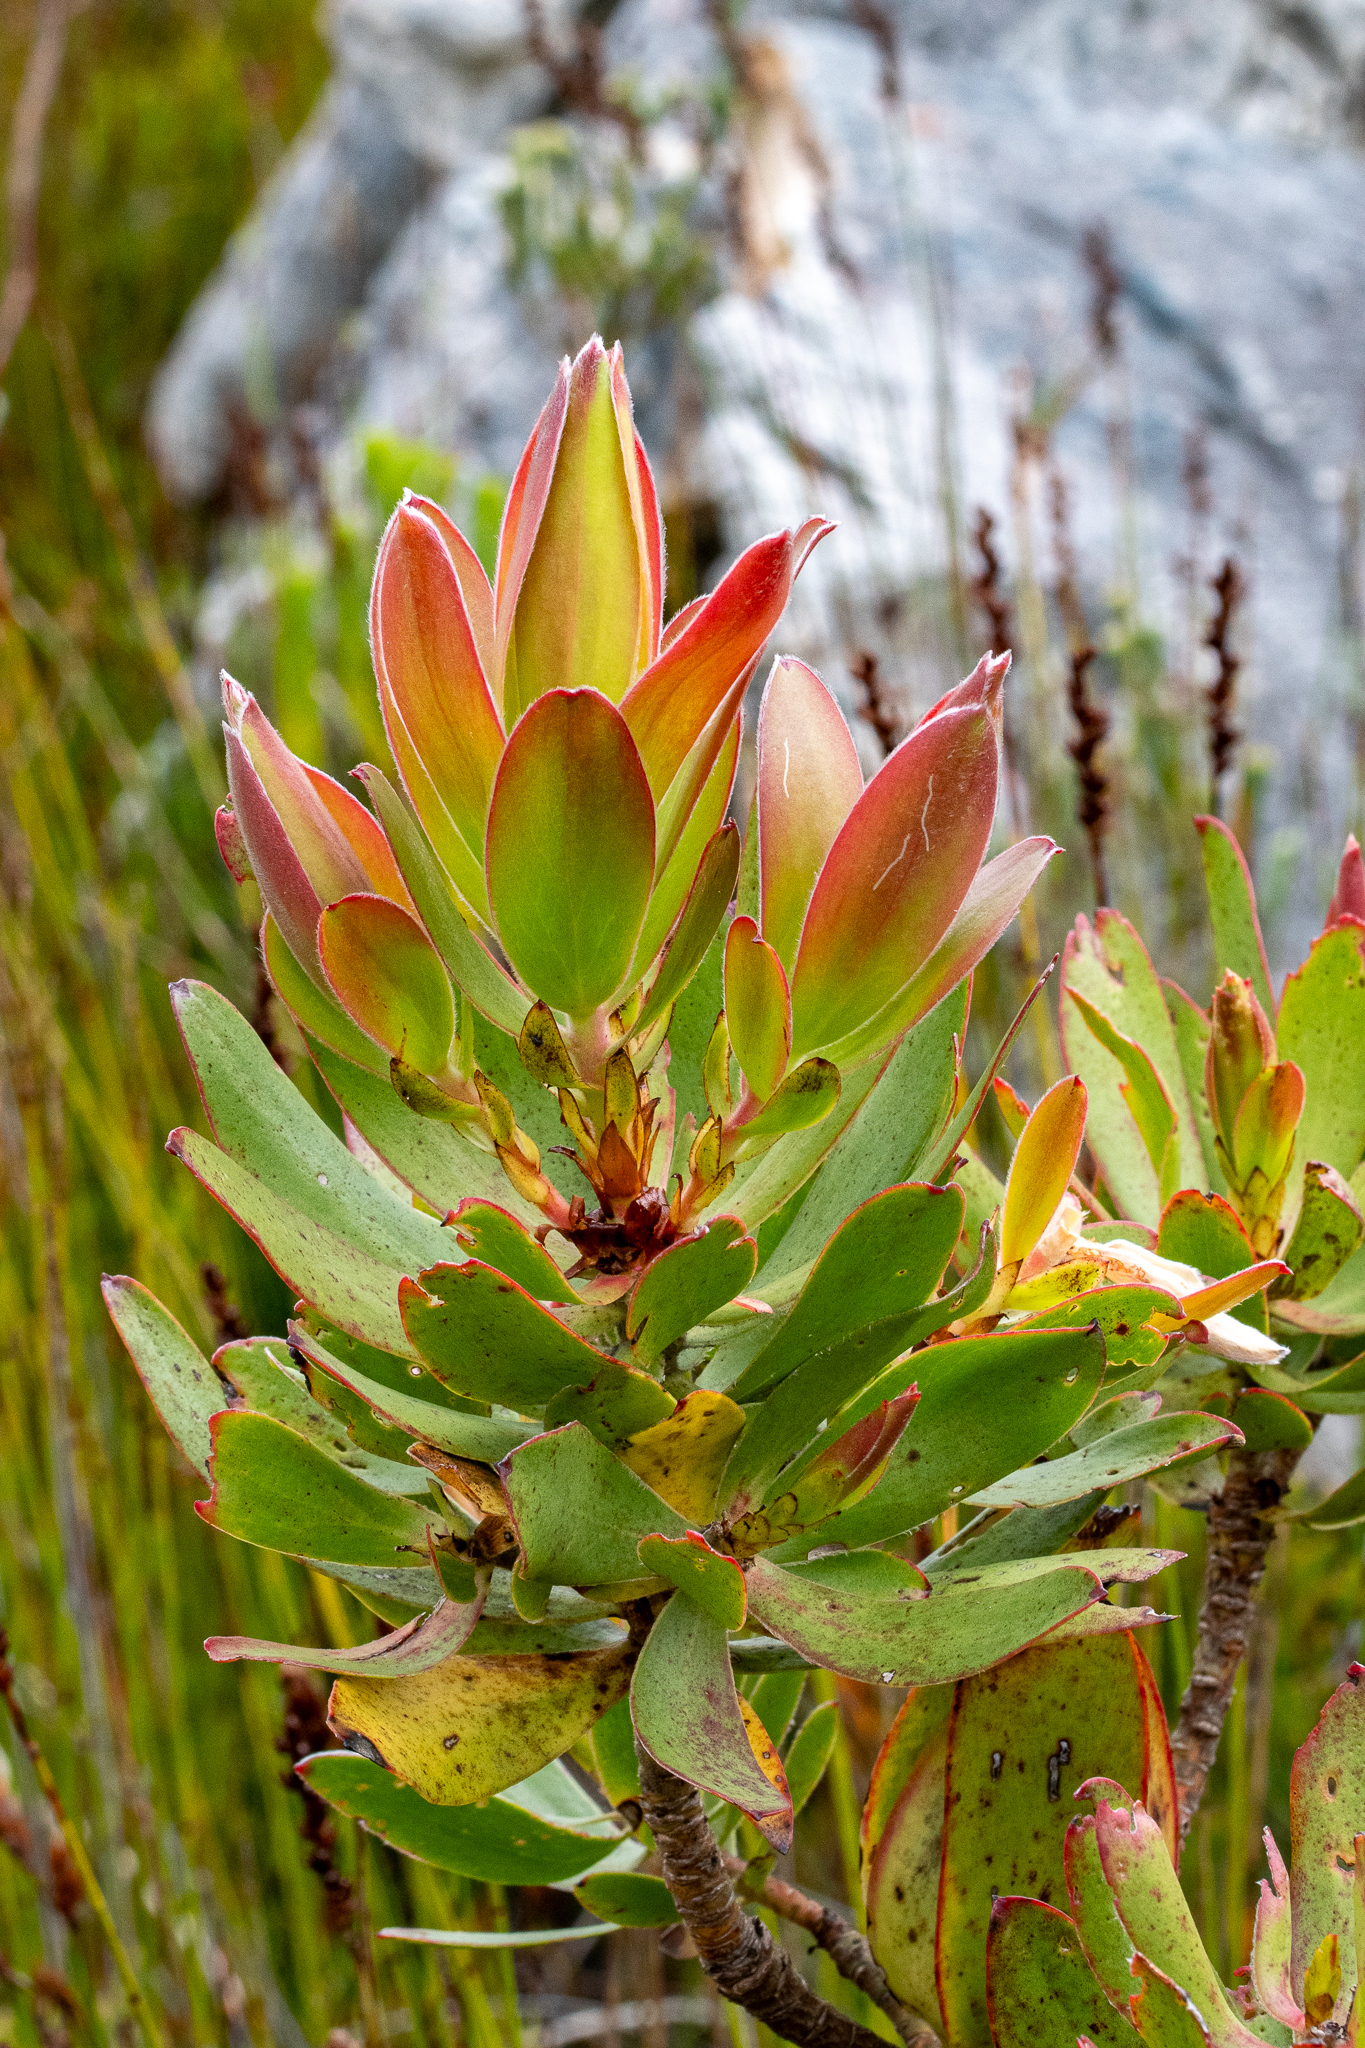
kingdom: Plantae
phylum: Tracheophyta
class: Magnoliopsida
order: Proteales
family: Proteaceae
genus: Leucadendron
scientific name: Leucadendron gandogeri
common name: Broad-leaf conebush
